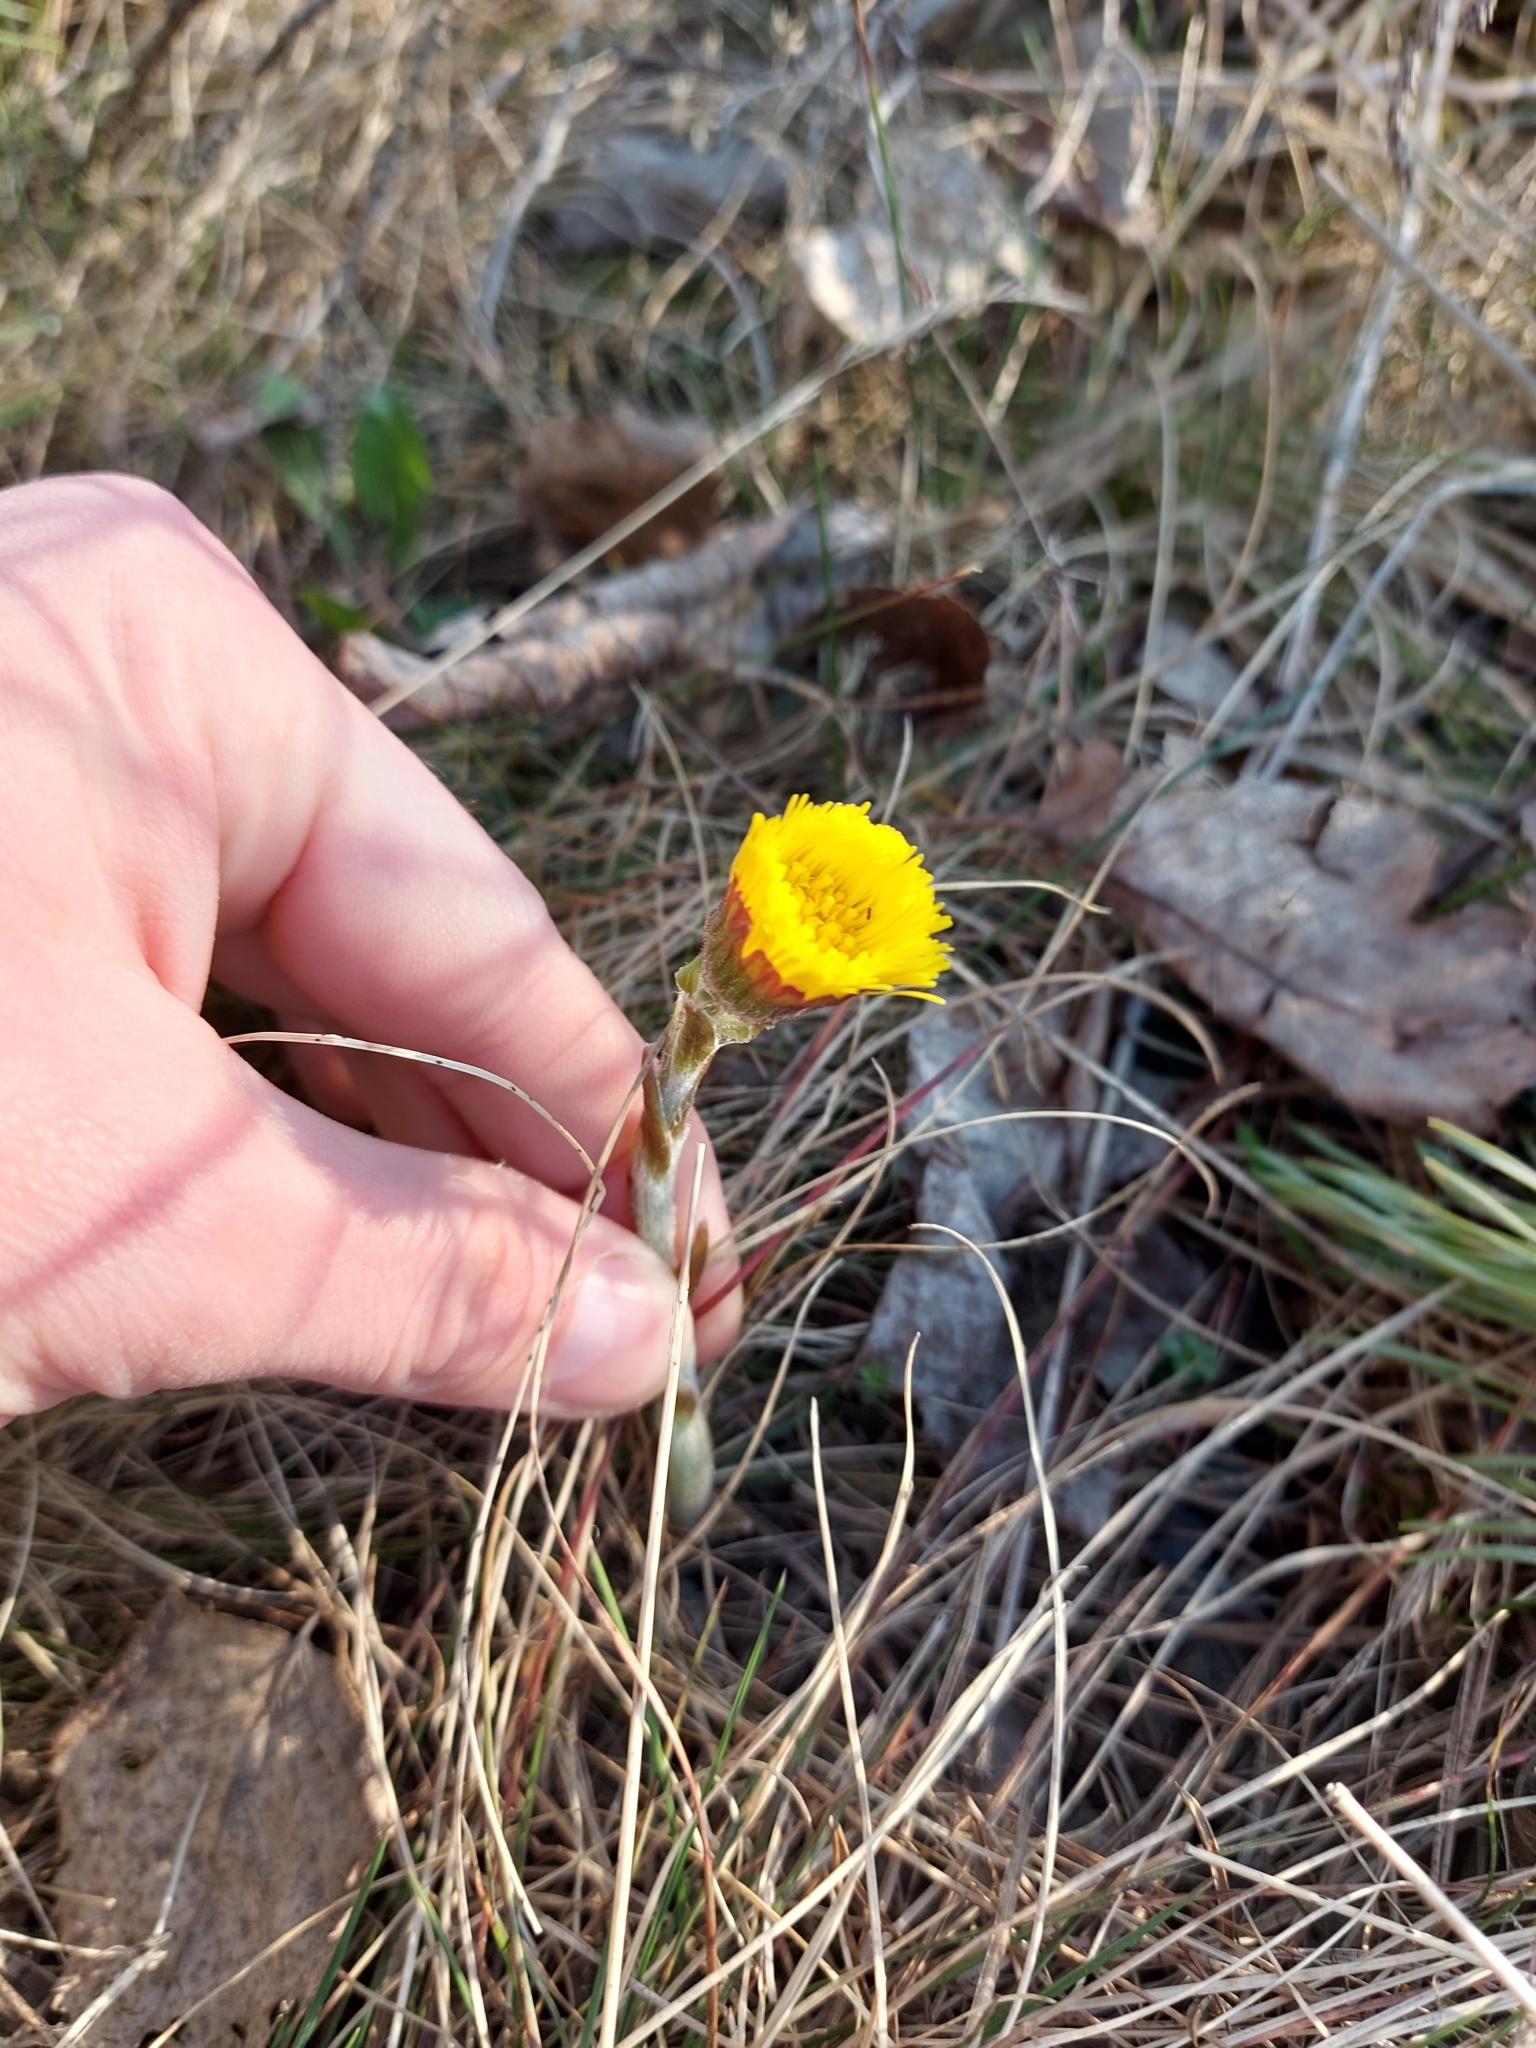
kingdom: Plantae
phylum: Tracheophyta
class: Magnoliopsida
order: Asterales
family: Asteraceae
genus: Tussilago
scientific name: Tussilago farfara
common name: Coltsfoot
